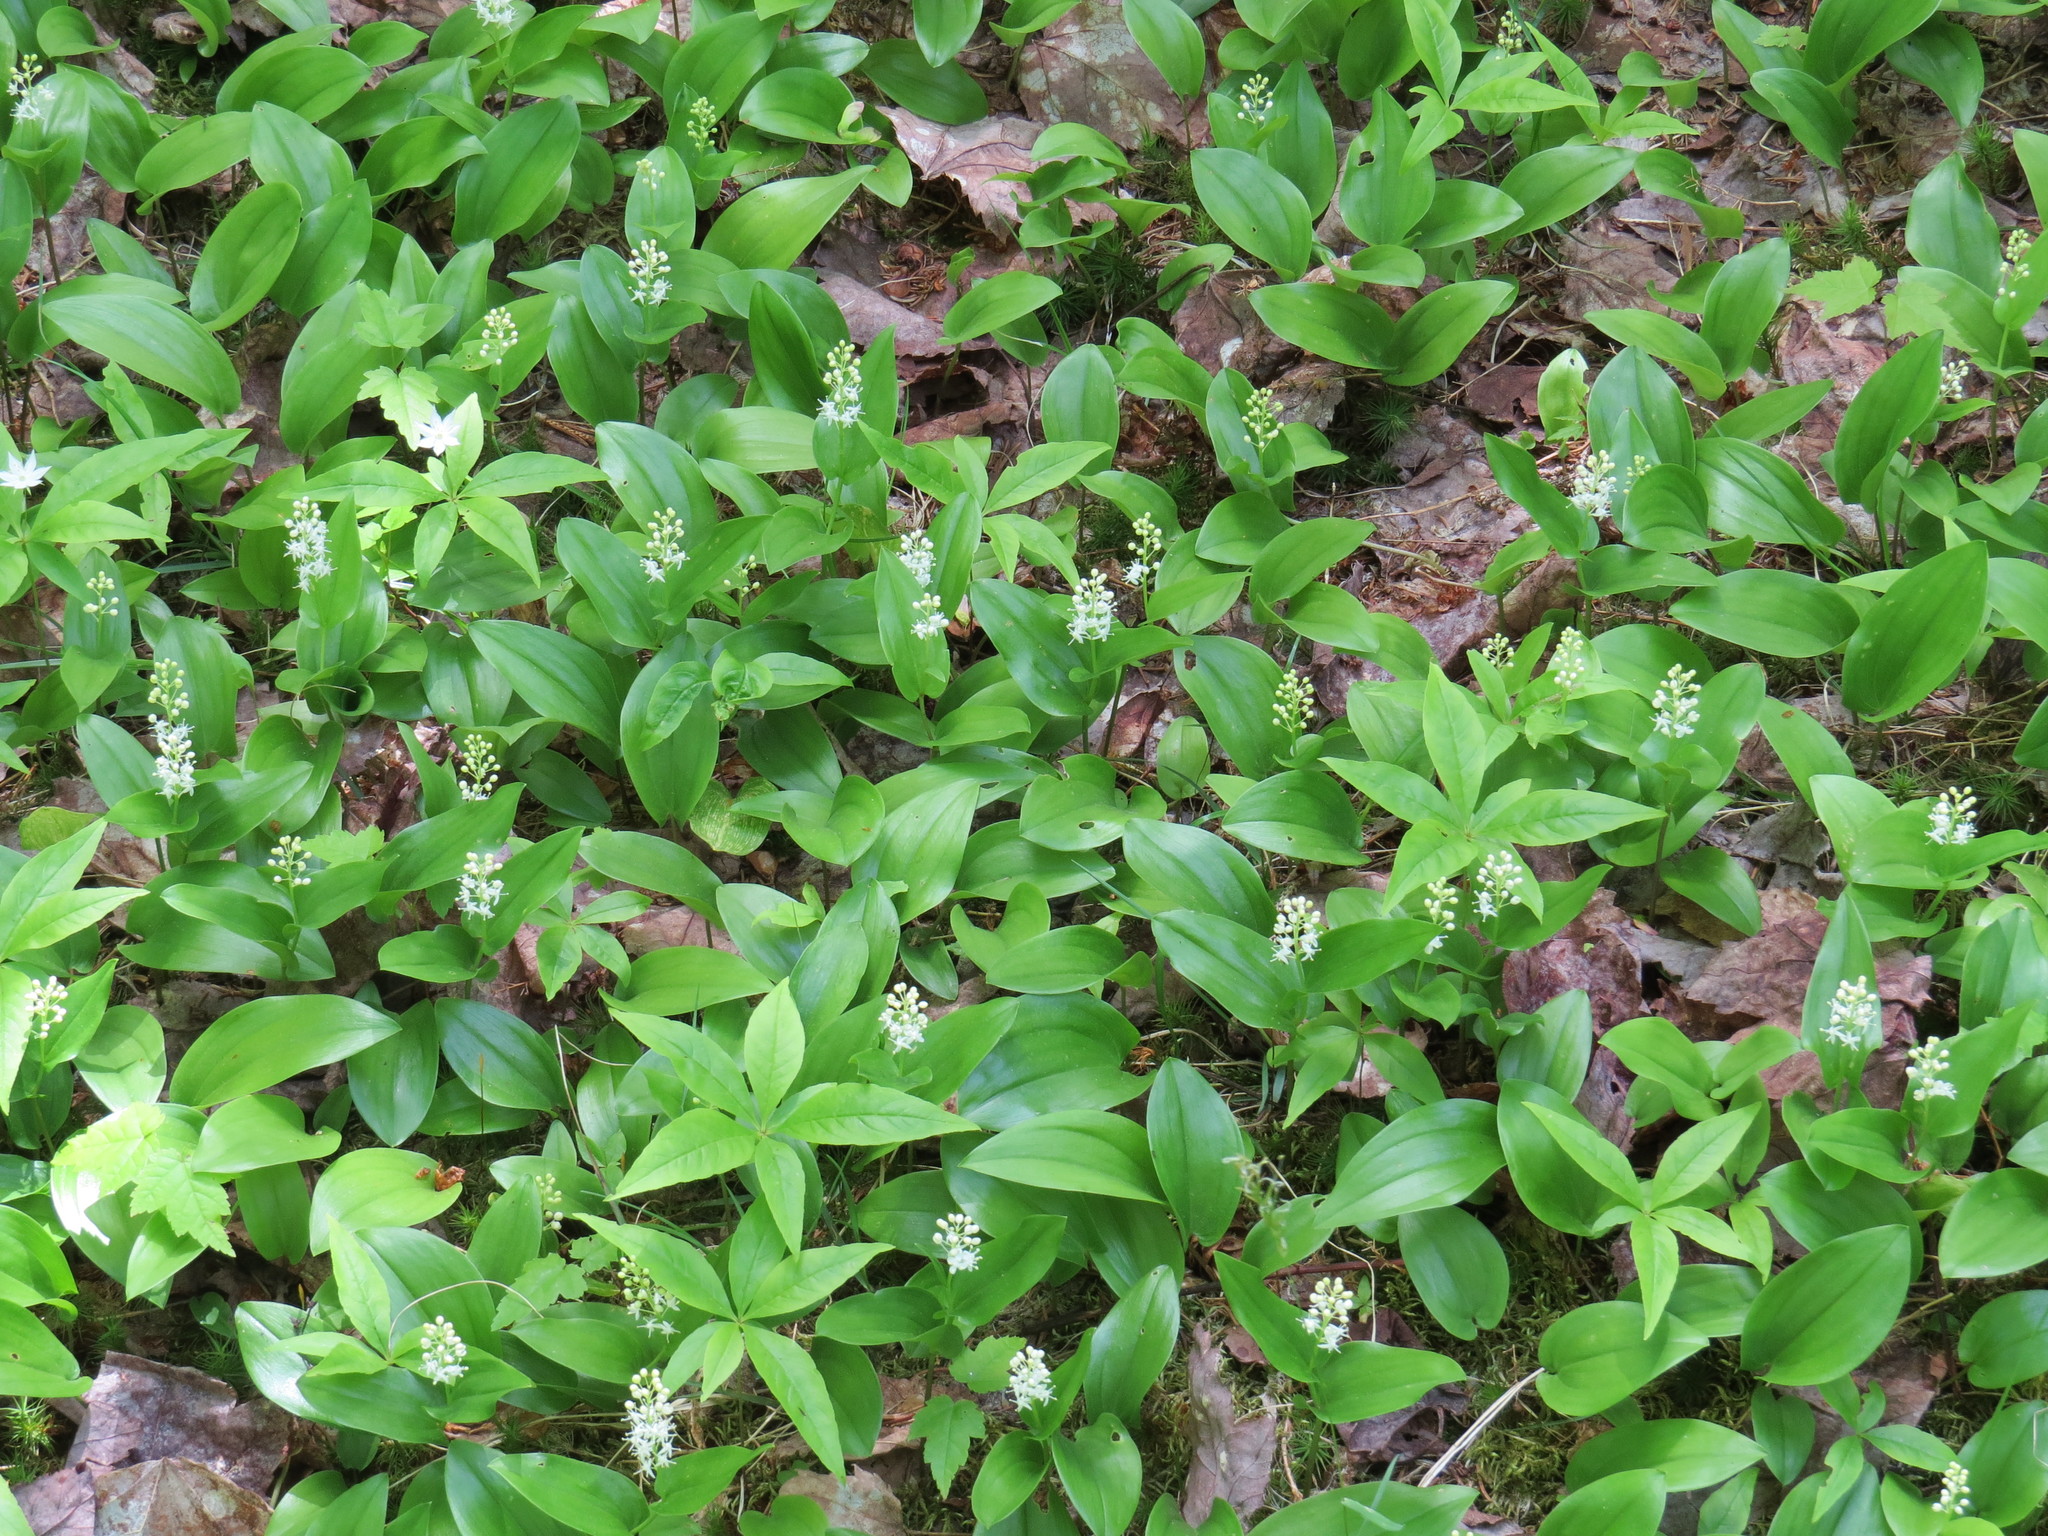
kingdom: Plantae
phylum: Tracheophyta
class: Liliopsida
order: Asparagales
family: Asparagaceae
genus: Maianthemum
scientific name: Maianthemum canadense
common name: False lily-of-the-valley
